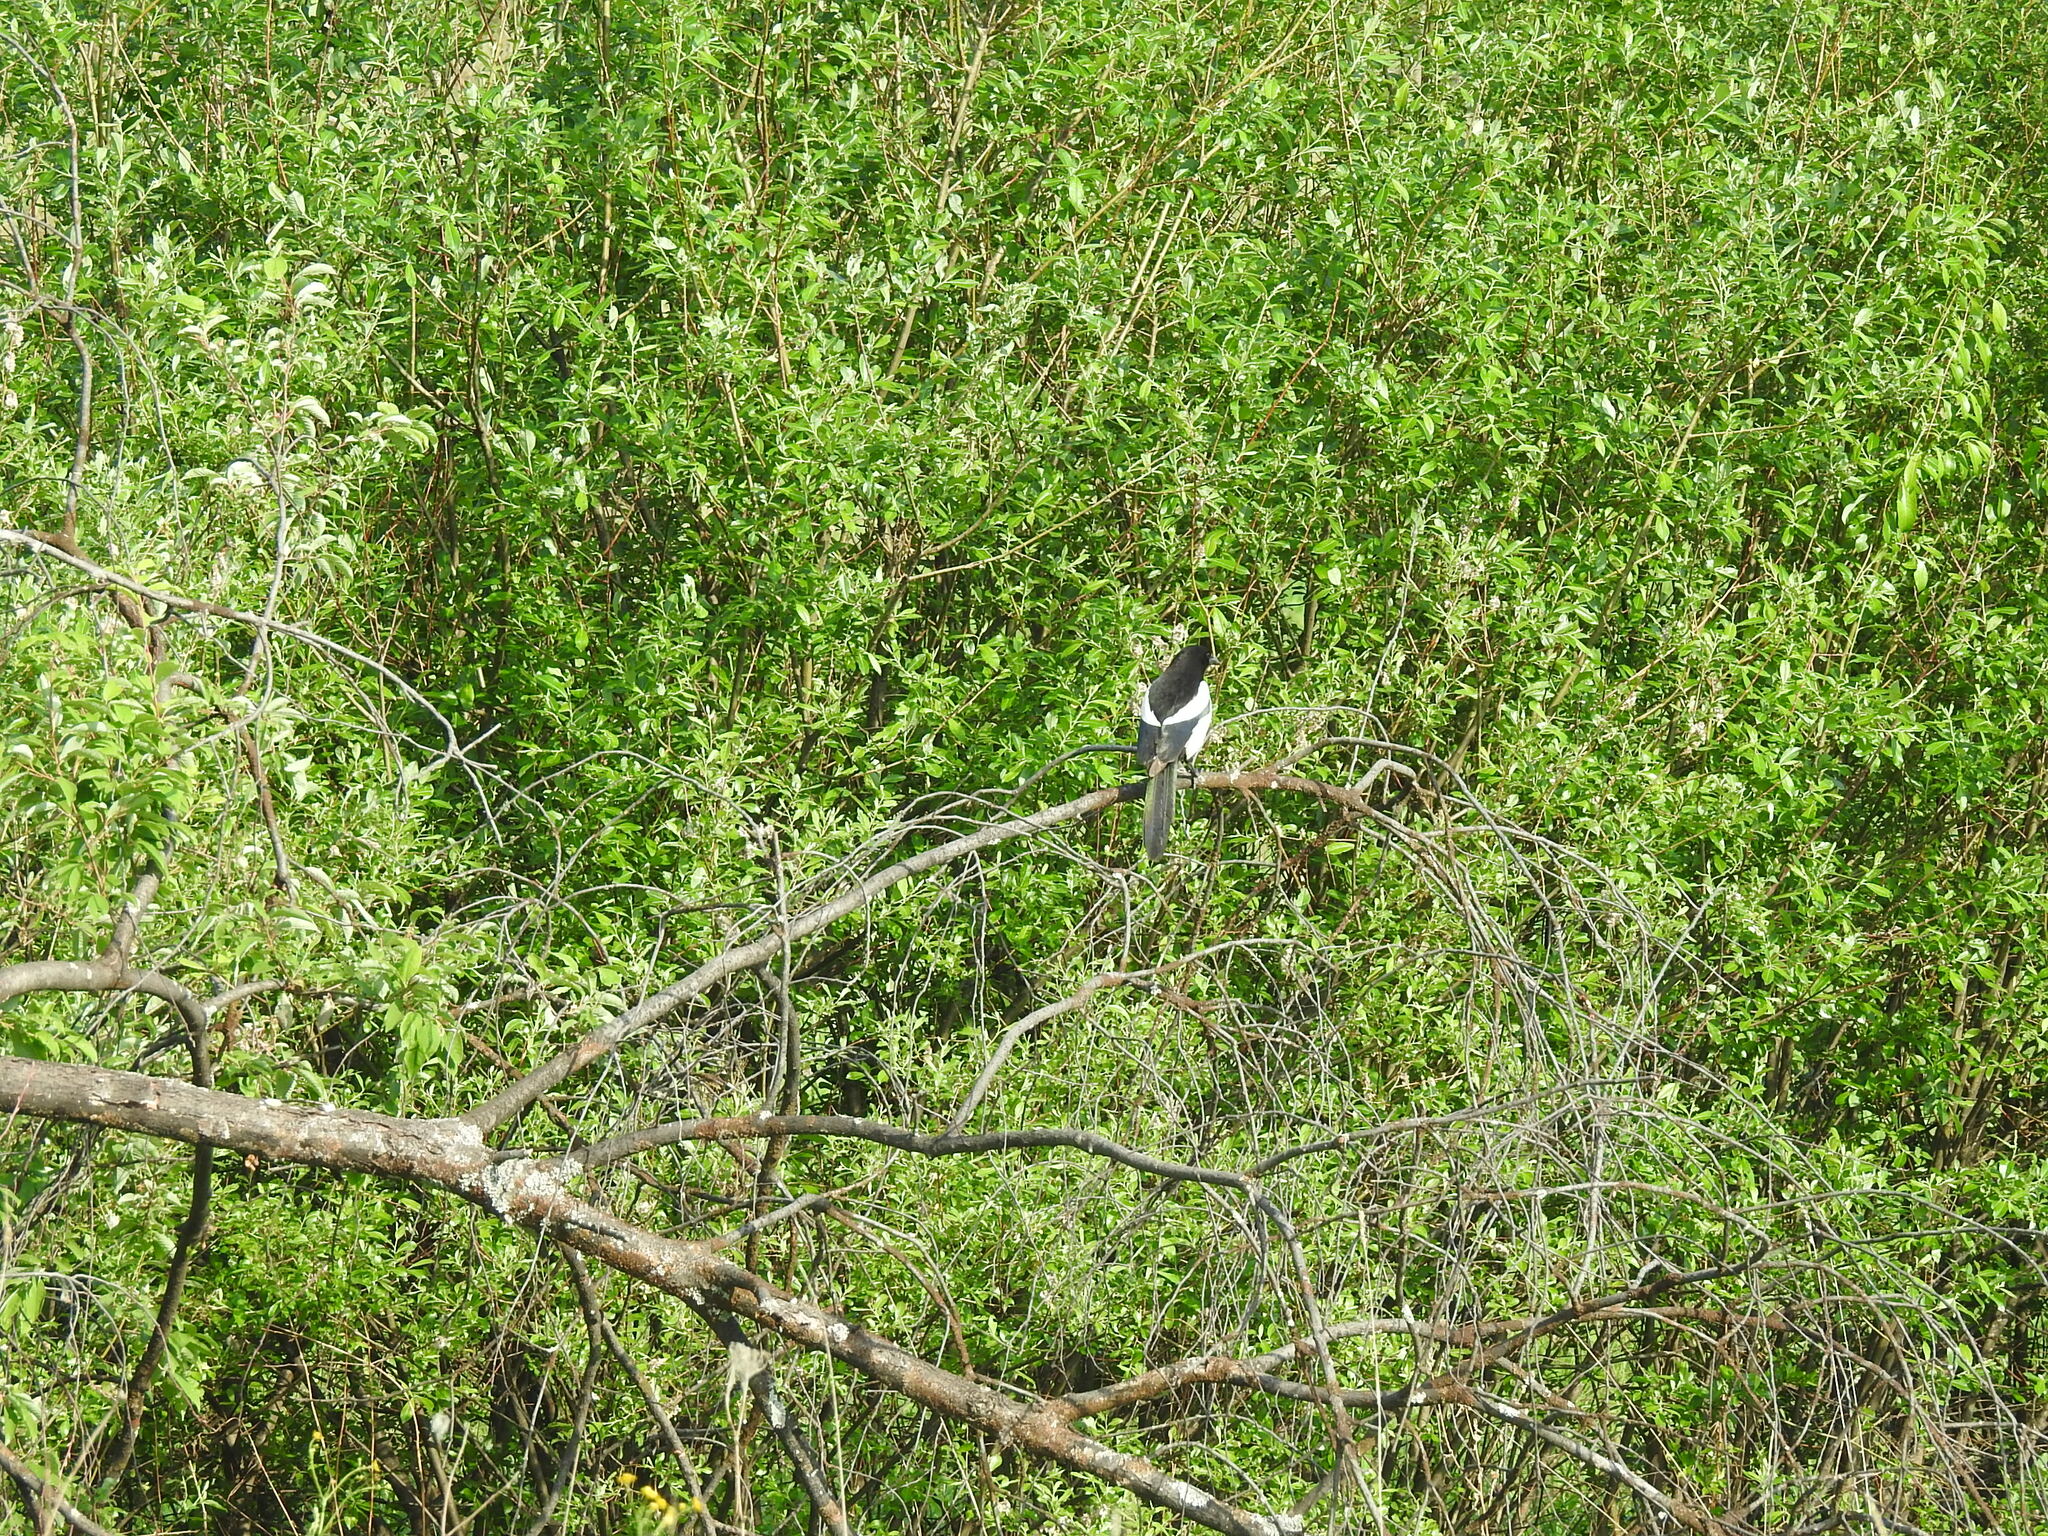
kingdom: Animalia
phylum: Chordata
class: Aves
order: Passeriformes
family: Corvidae
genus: Pica
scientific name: Pica pica
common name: Eurasian magpie
